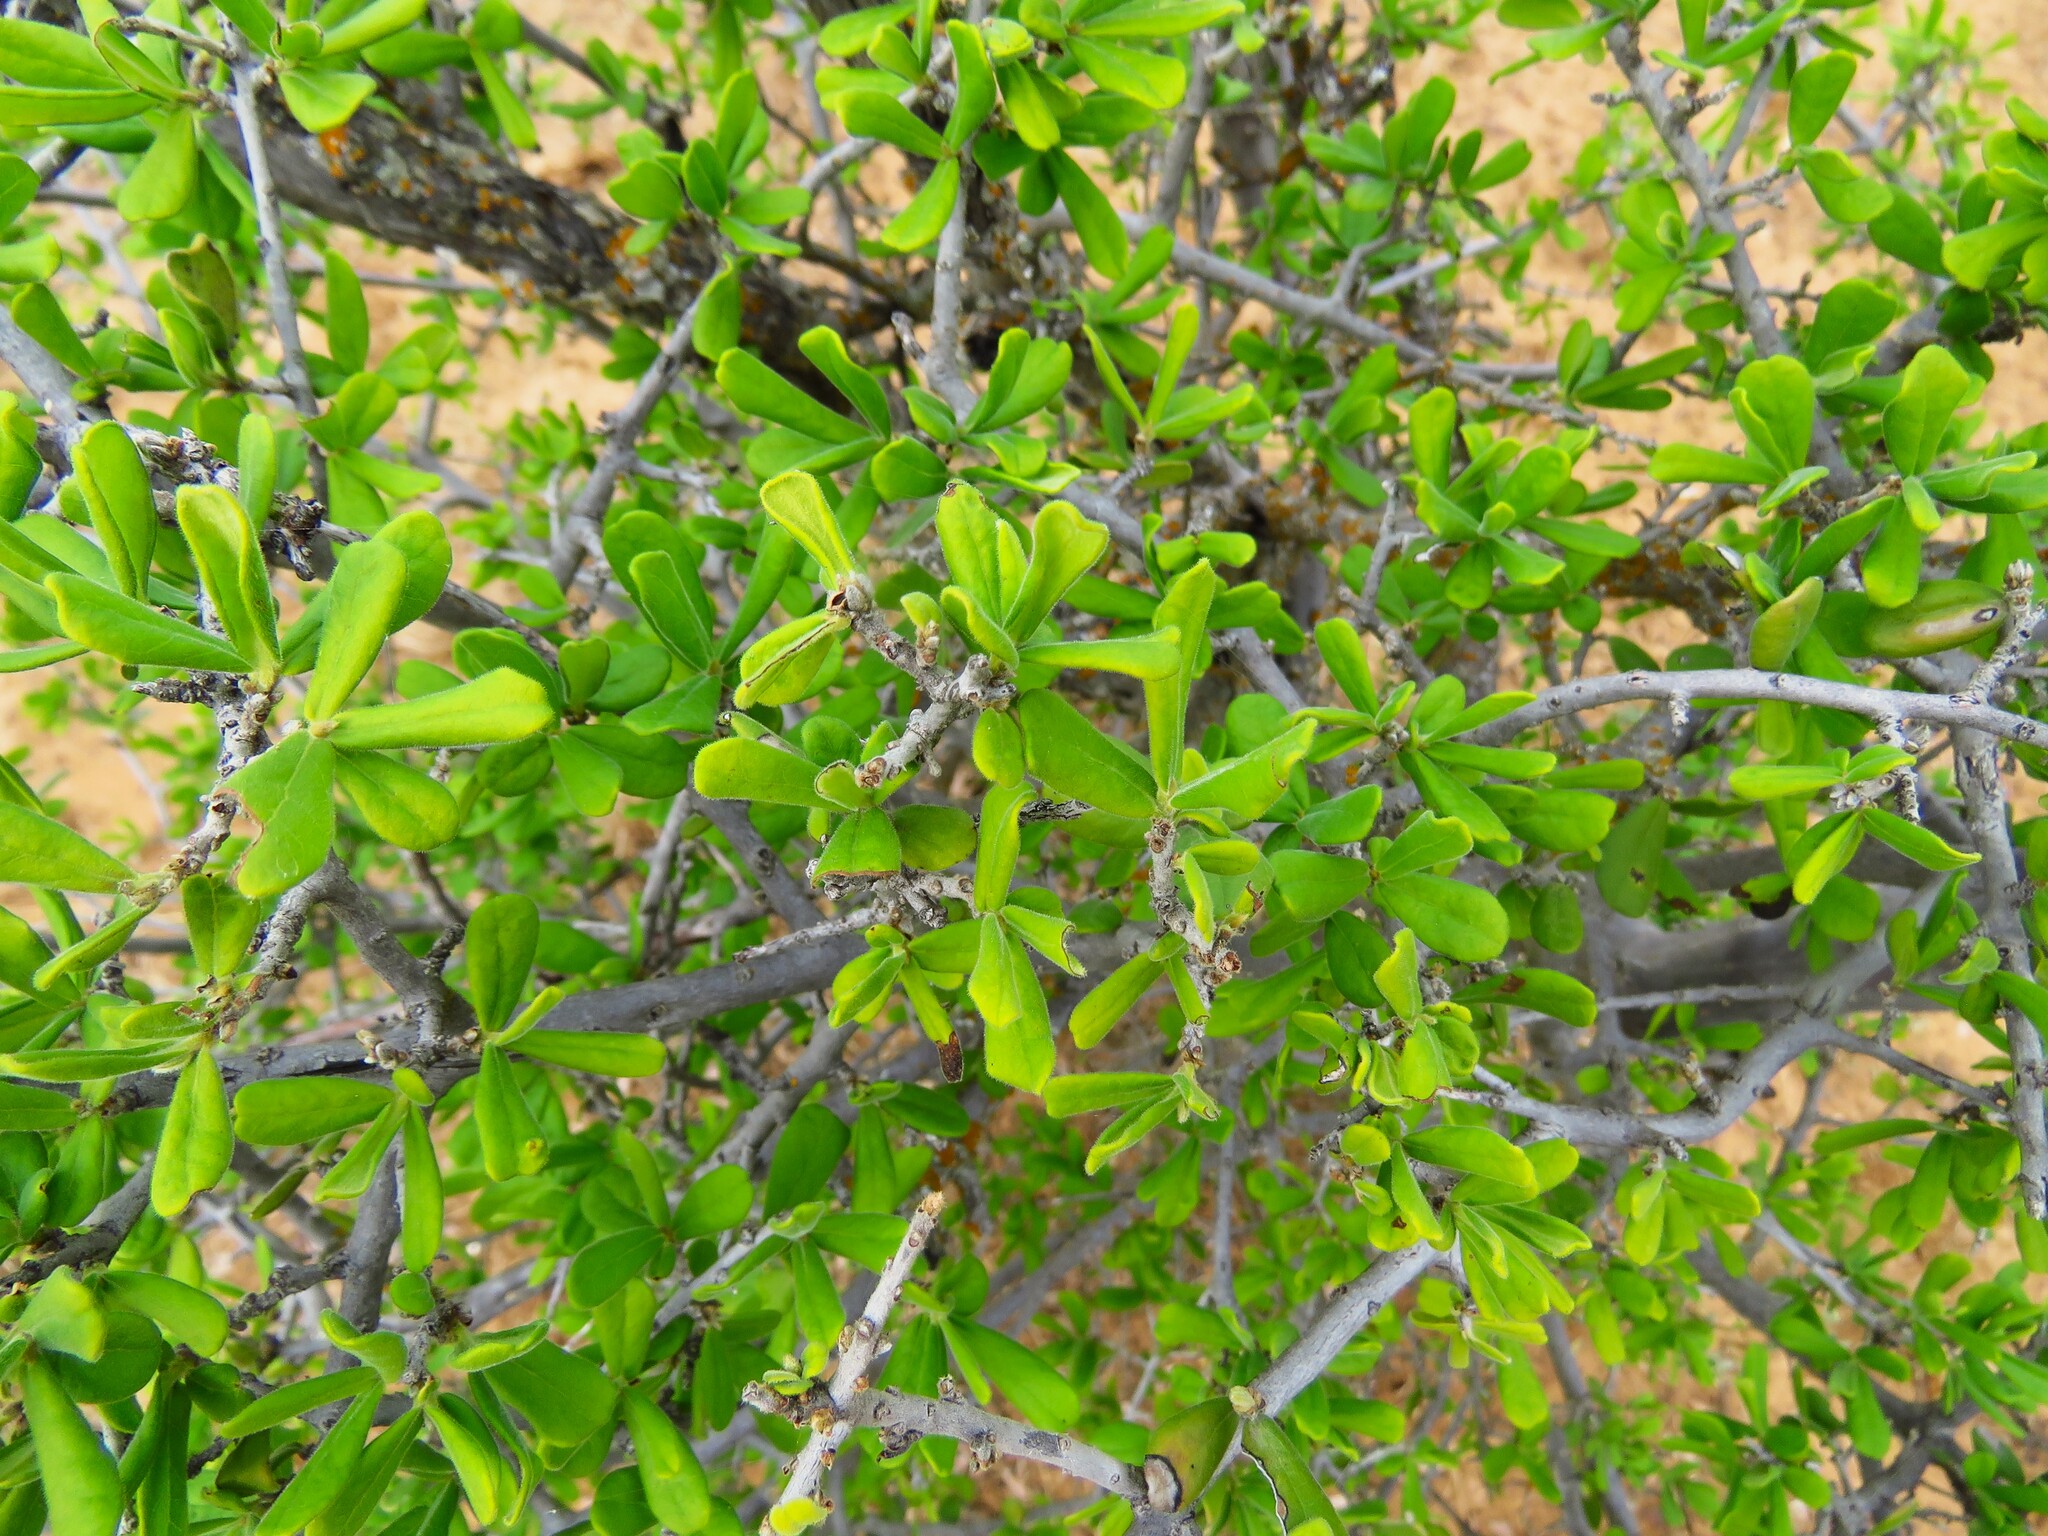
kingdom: Plantae
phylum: Tracheophyta
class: Magnoliopsida
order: Ericales
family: Ebenaceae
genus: Diospyros
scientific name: Diospyros texana
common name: Texas persimmon
